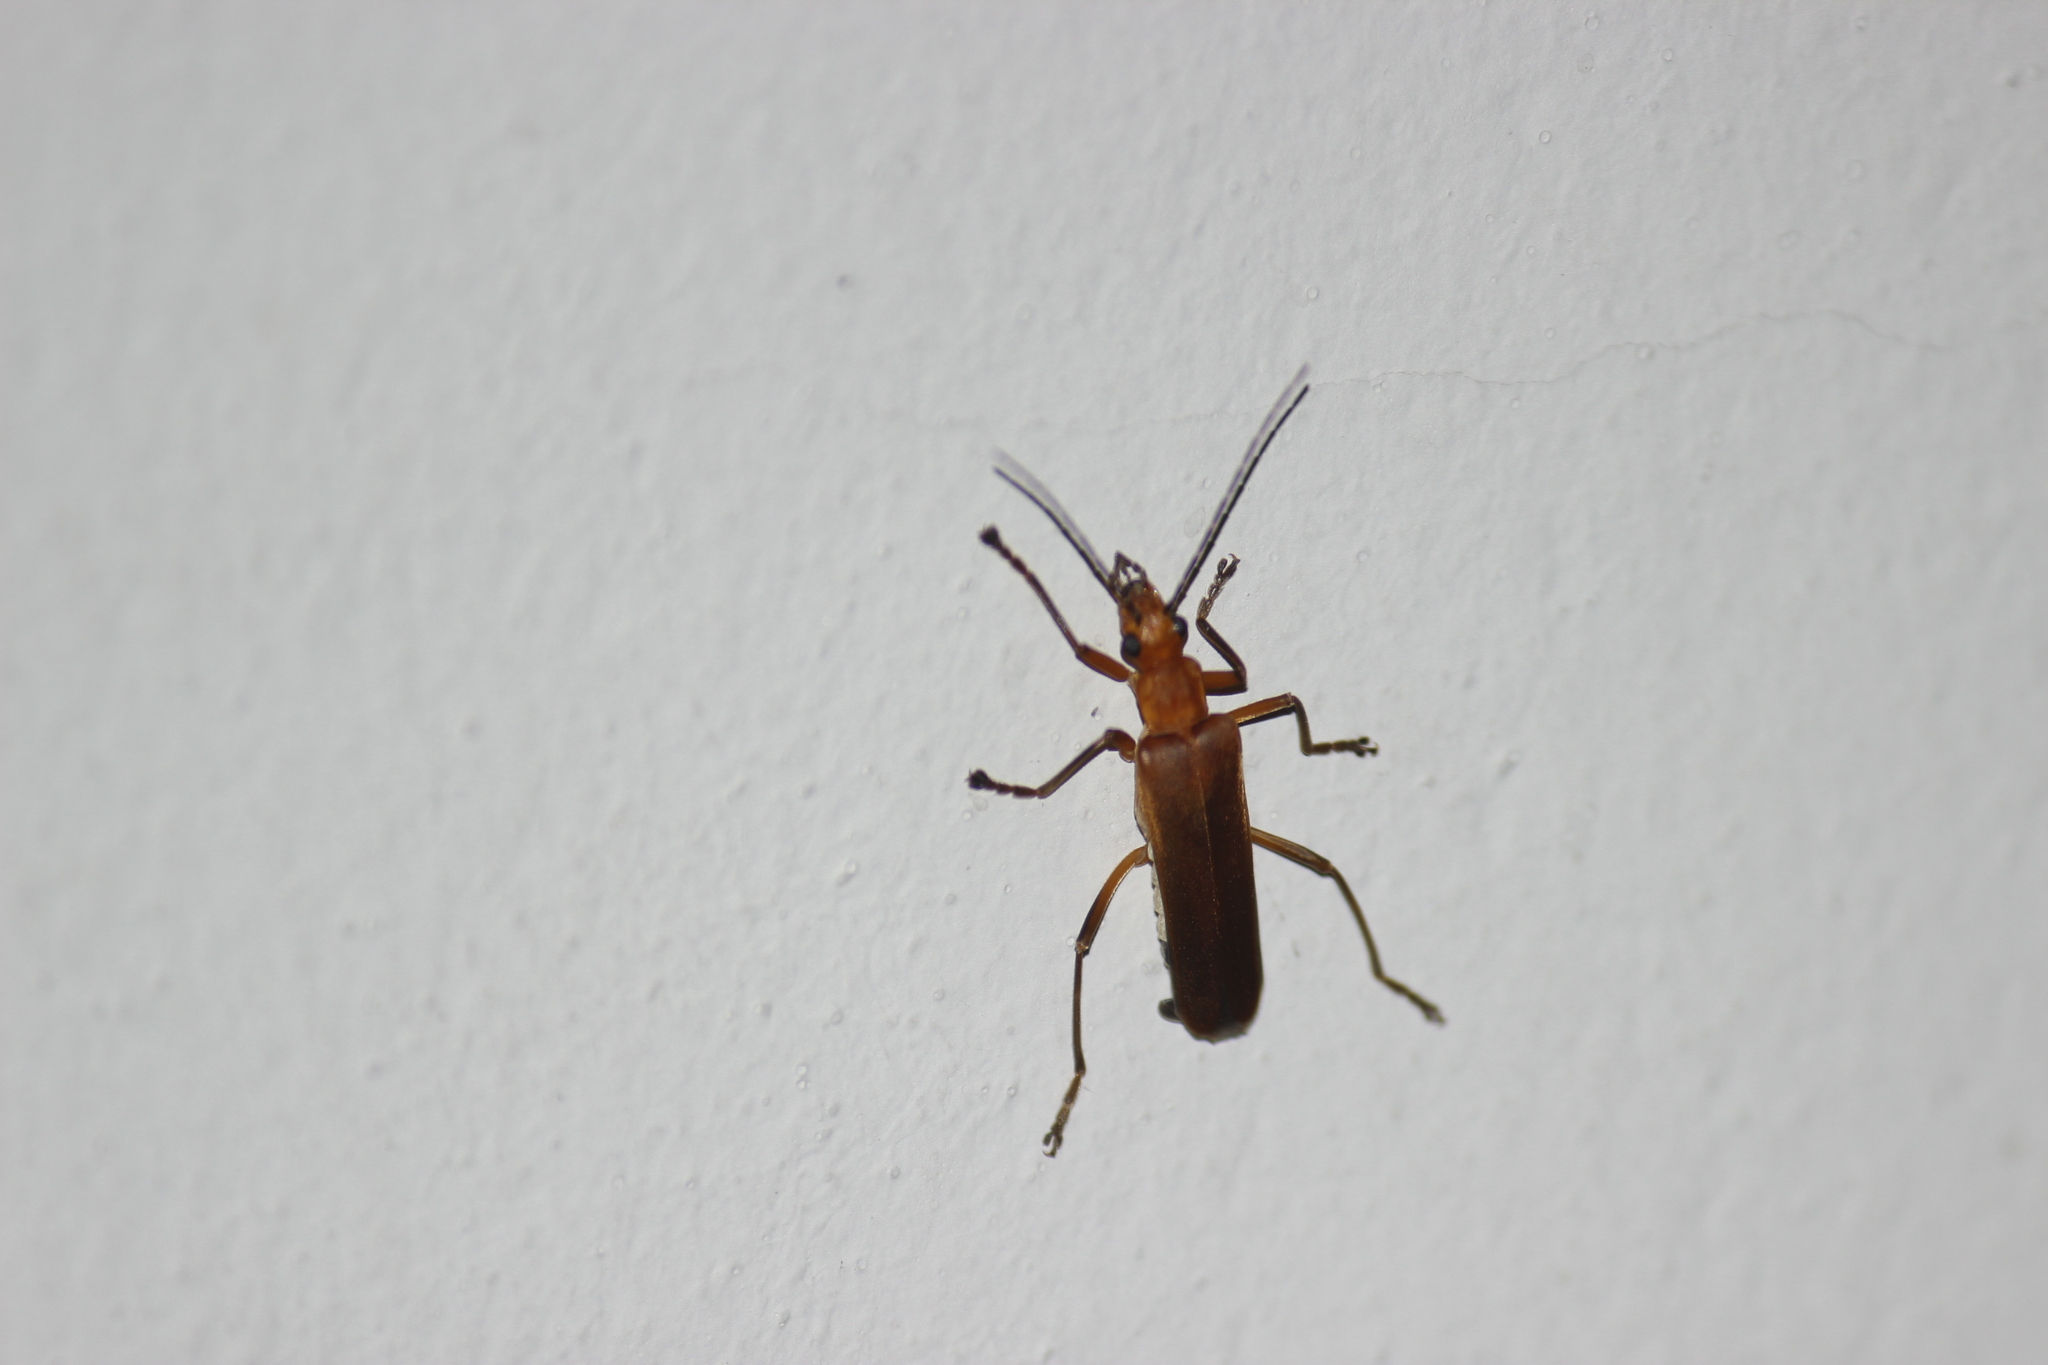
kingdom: Animalia
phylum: Arthropoda
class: Insecta
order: Coleoptera
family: Cantharidae
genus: Chauliognathus
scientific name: Chauliognathus
